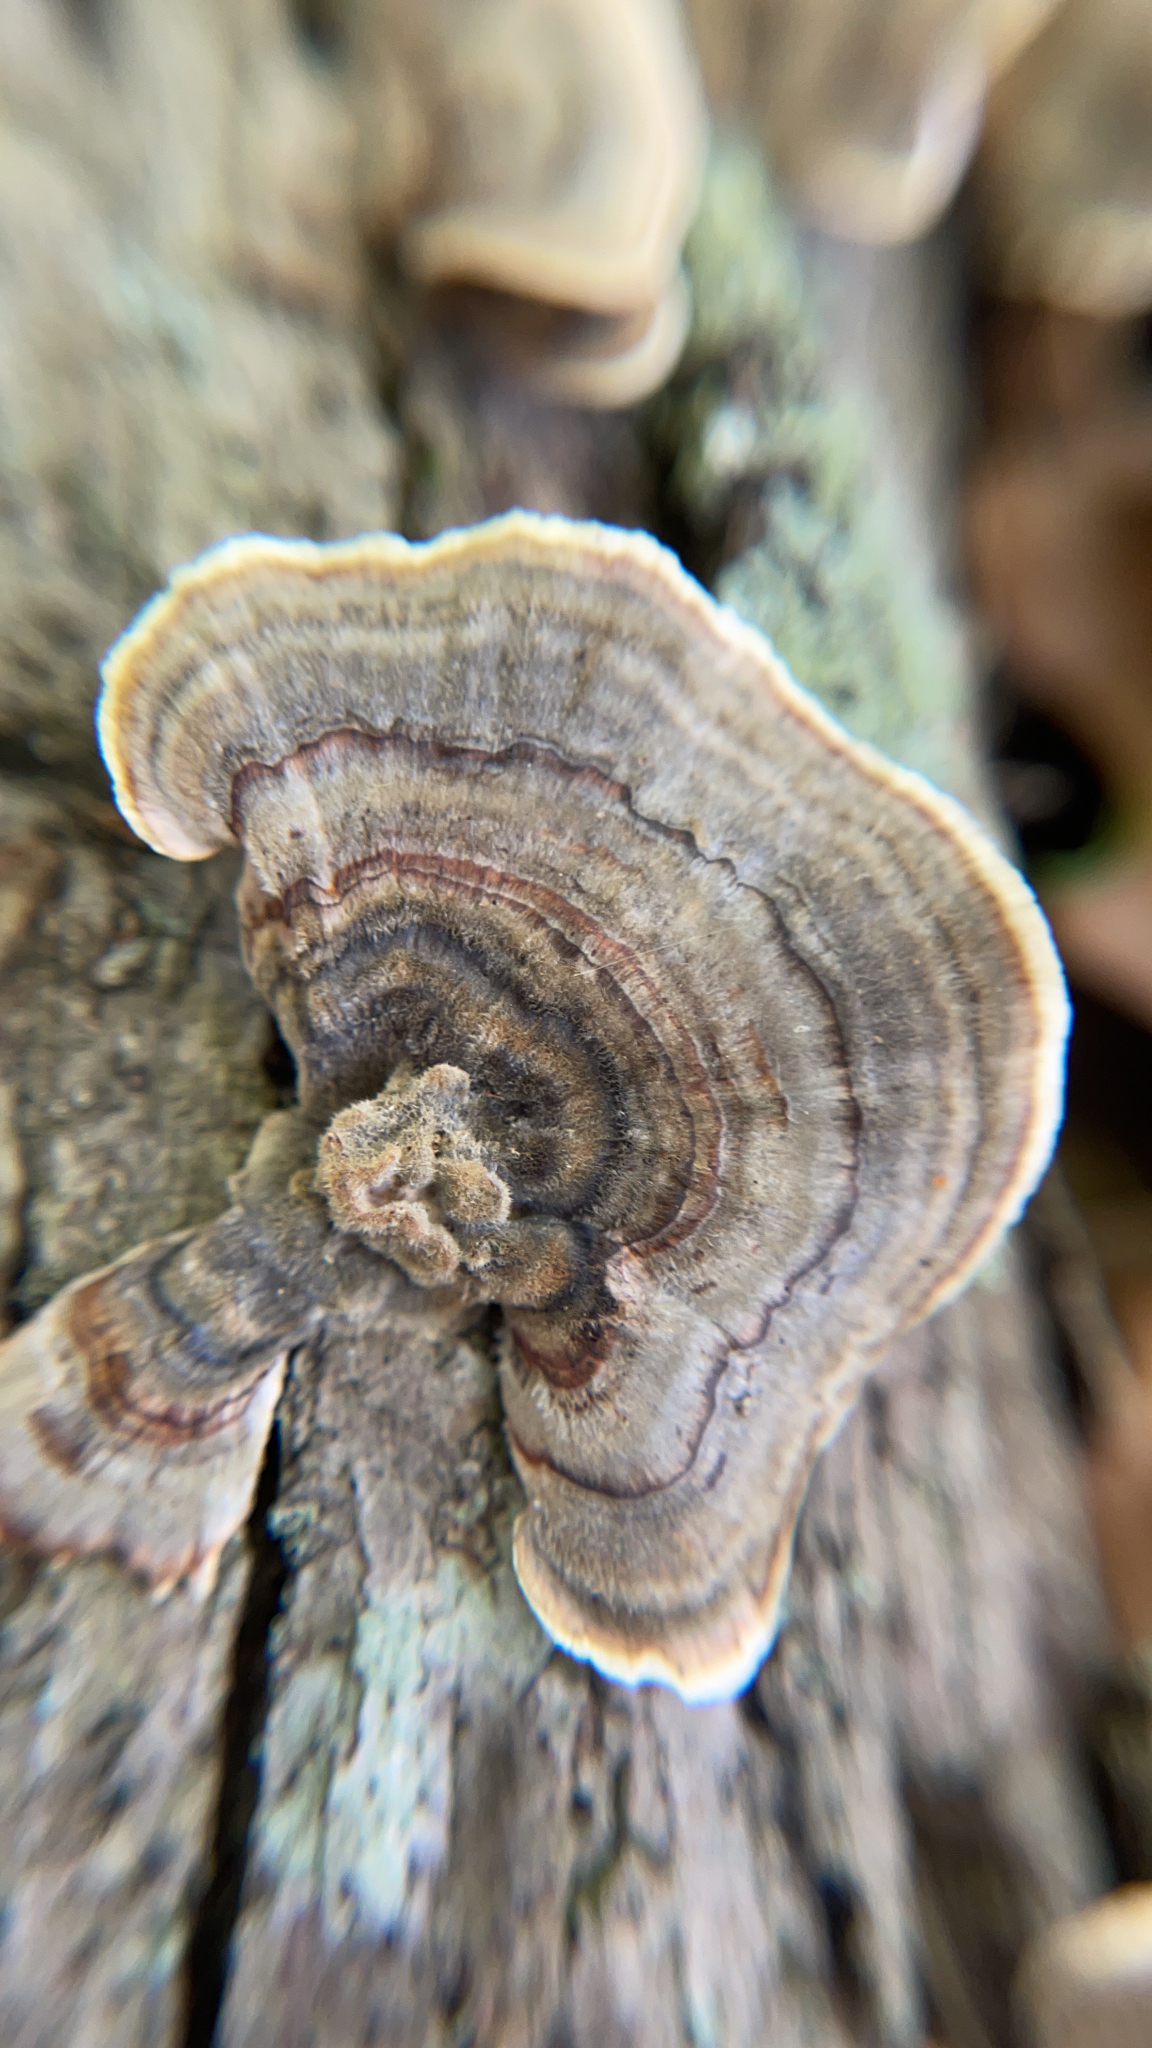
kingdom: Fungi
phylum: Basidiomycota
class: Agaricomycetes
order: Polyporales
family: Polyporaceae
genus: Trametes
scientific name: Trametes versicolor
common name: Turkeytail
